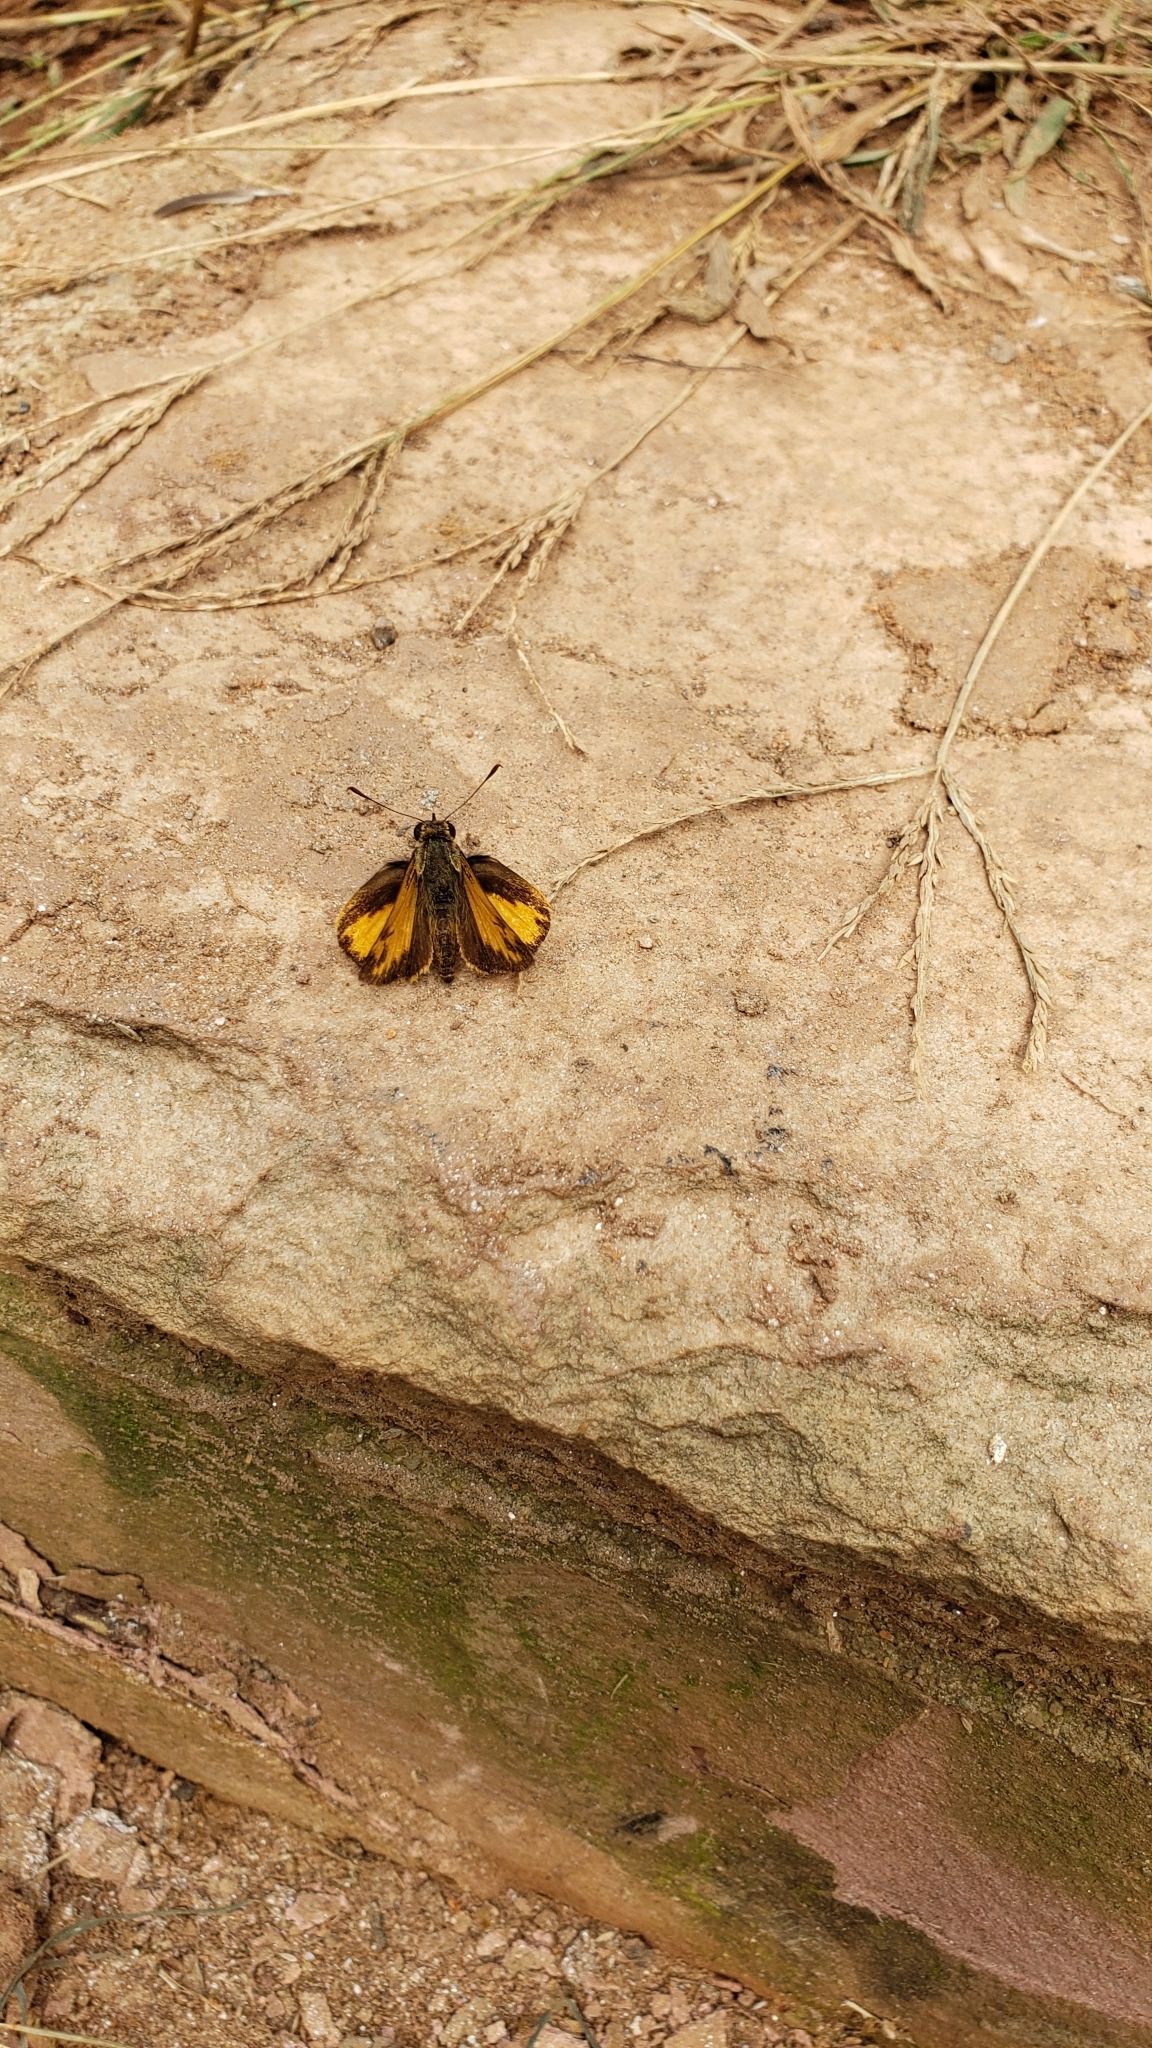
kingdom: Animalia
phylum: Arthropoda
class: Insecta
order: Lepidoptera
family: Hesperiidae
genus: Lon
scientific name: Lon zabulon
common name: Zabulon skipper
